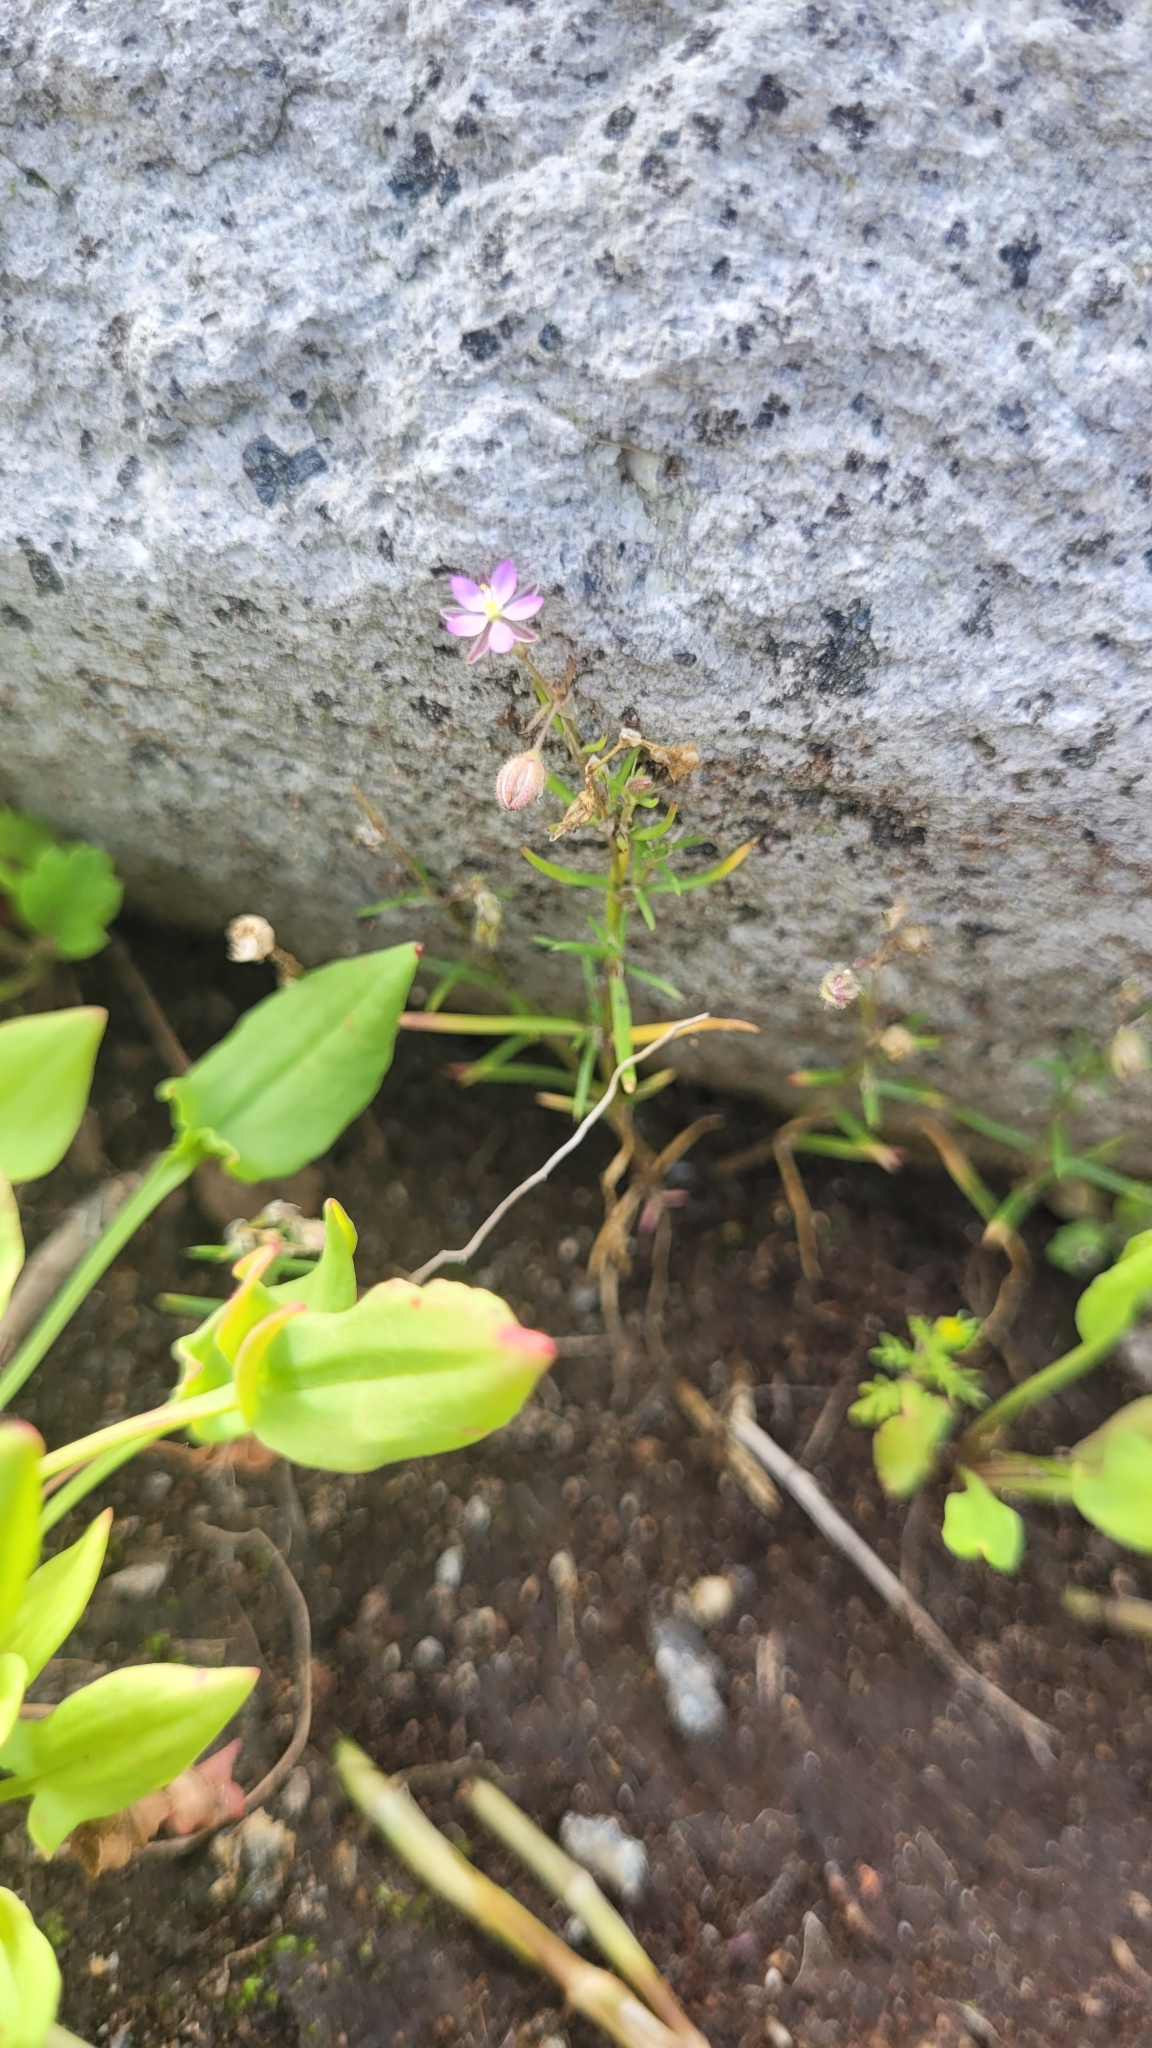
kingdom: Plantae
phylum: Tracheophyta
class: Magnoliopsida
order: Caryophyllales
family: Caryophyllaceae
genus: Spergularia
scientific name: Spergularia rubra
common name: Red sand-spurrey
